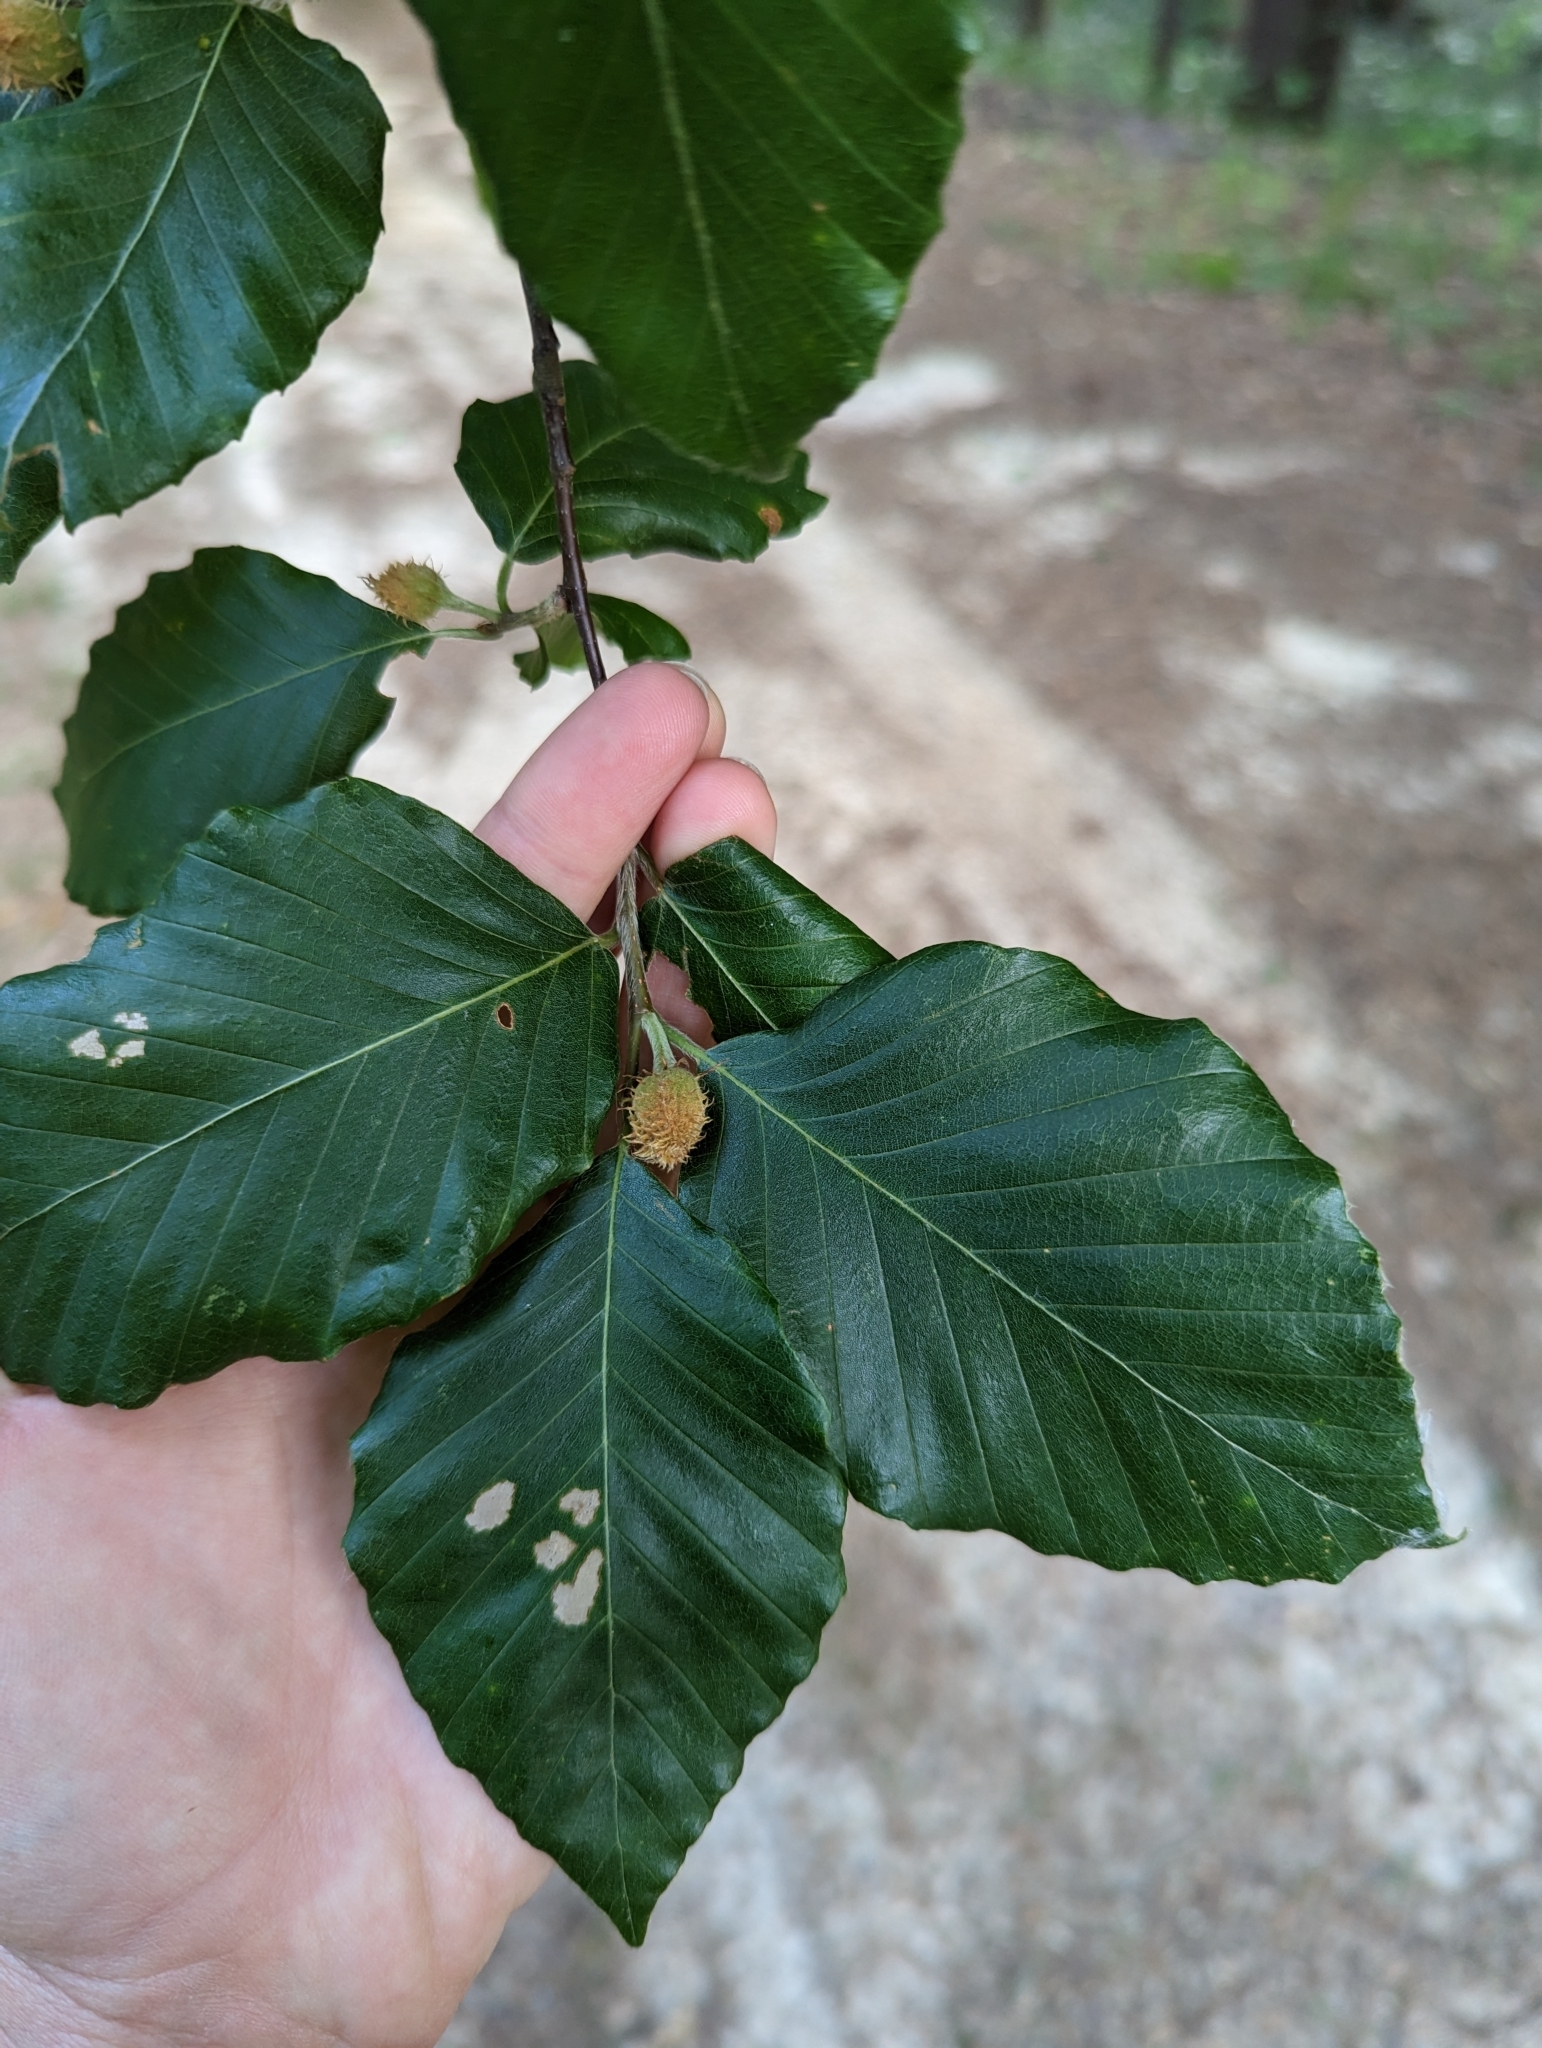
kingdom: Plantae
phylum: Tracheophyta
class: Magnoliopsida
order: Fagales
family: Fagaceae
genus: Fagus
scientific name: Fagus grandifolia
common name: American beech
